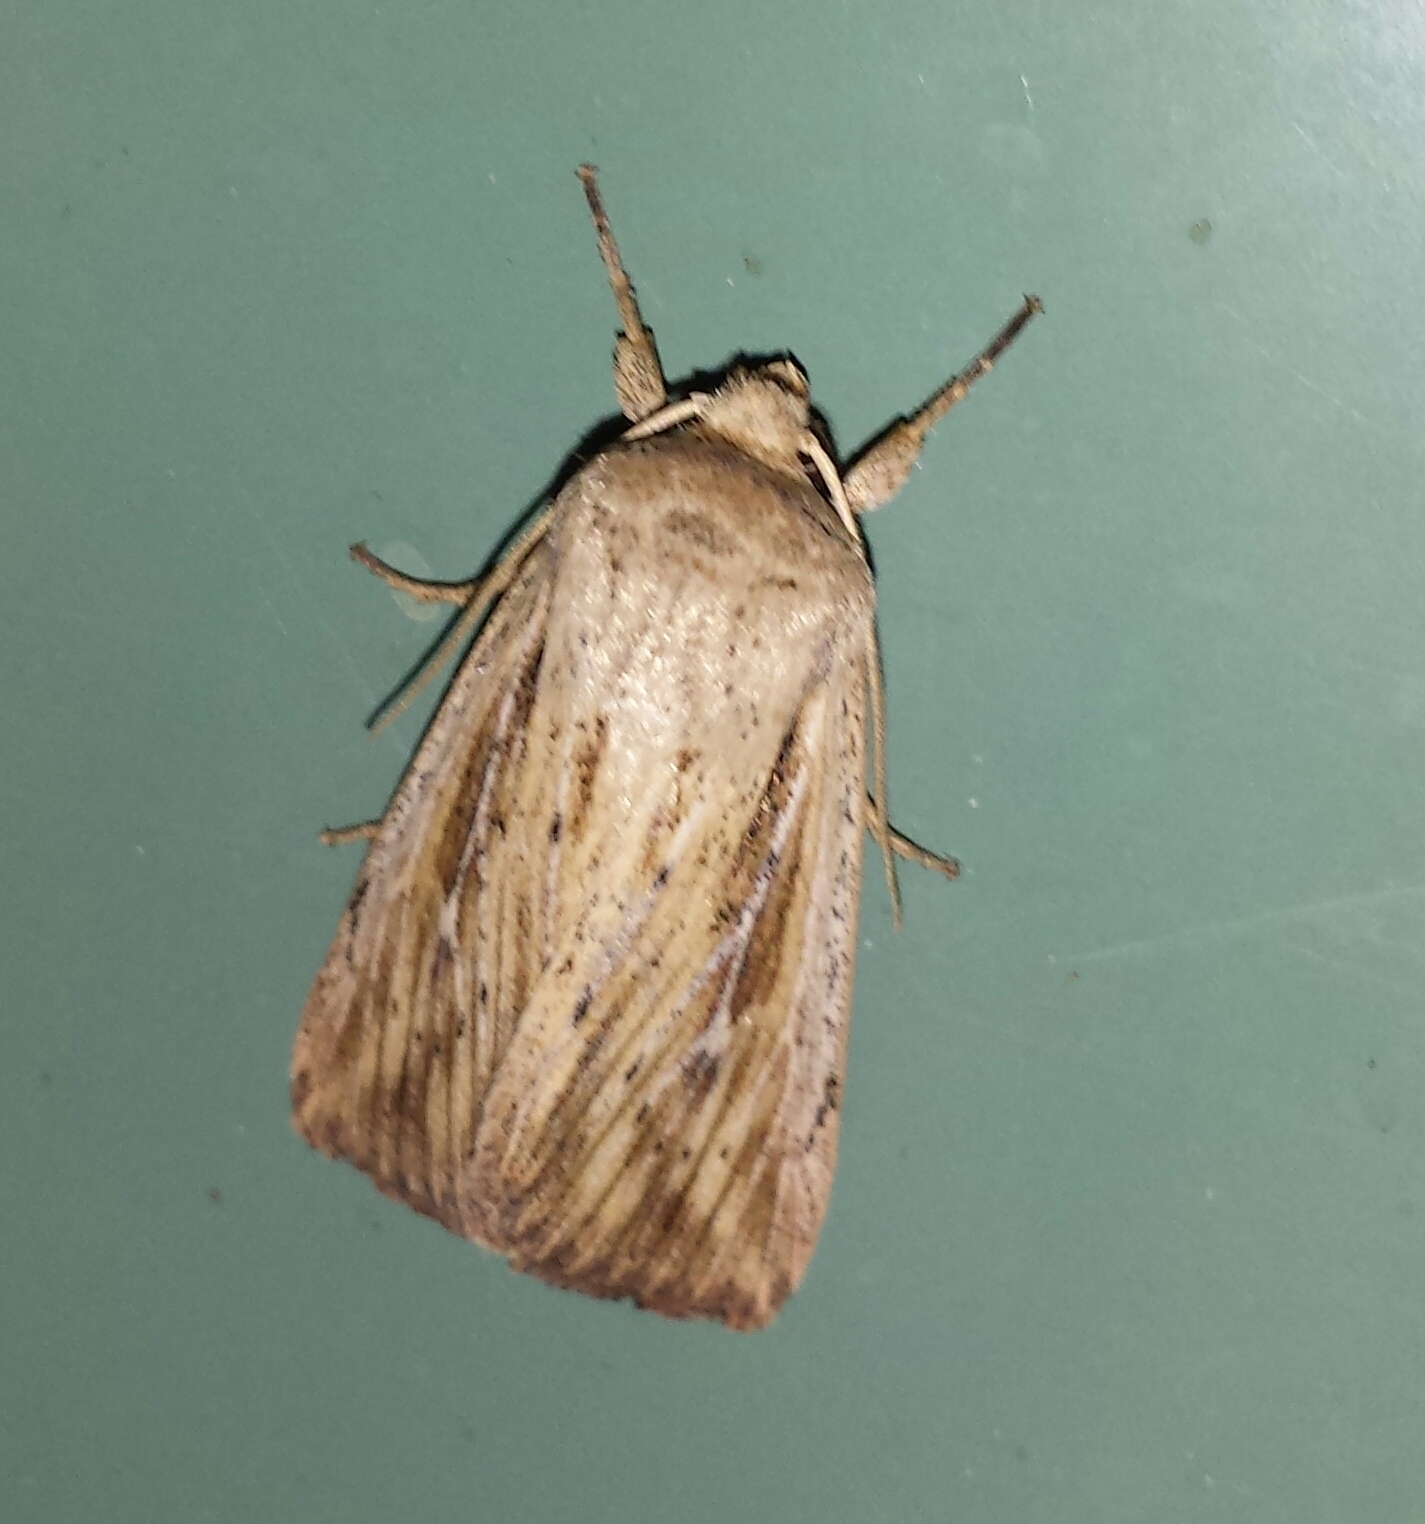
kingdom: Animalia
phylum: Arthropoda
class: Insecta
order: Lepidoptera
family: Noctuidae
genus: Leucania
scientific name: Leucania insueta
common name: Heterodox wainscot moth
